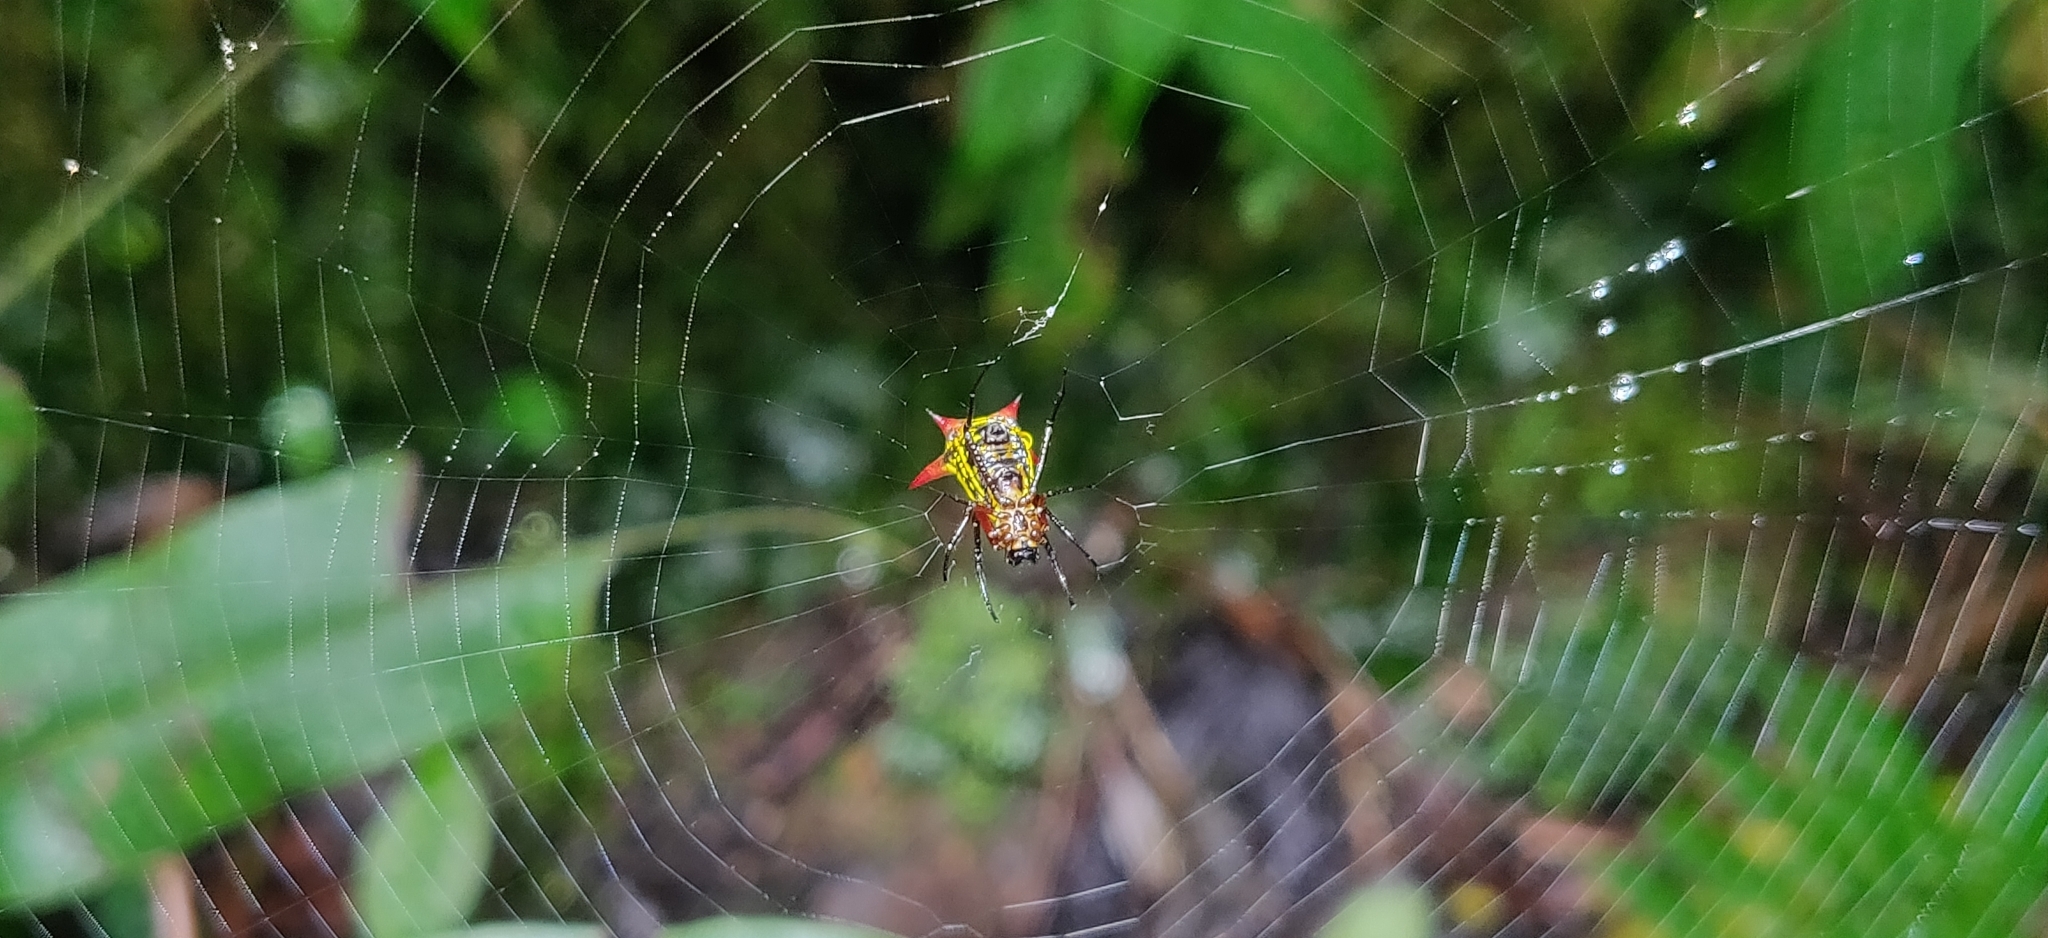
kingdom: Animalia
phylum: Arthropoda
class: Arachnida
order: Araneae
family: Araneidae
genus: Micrathena
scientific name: Micrathena guerini
